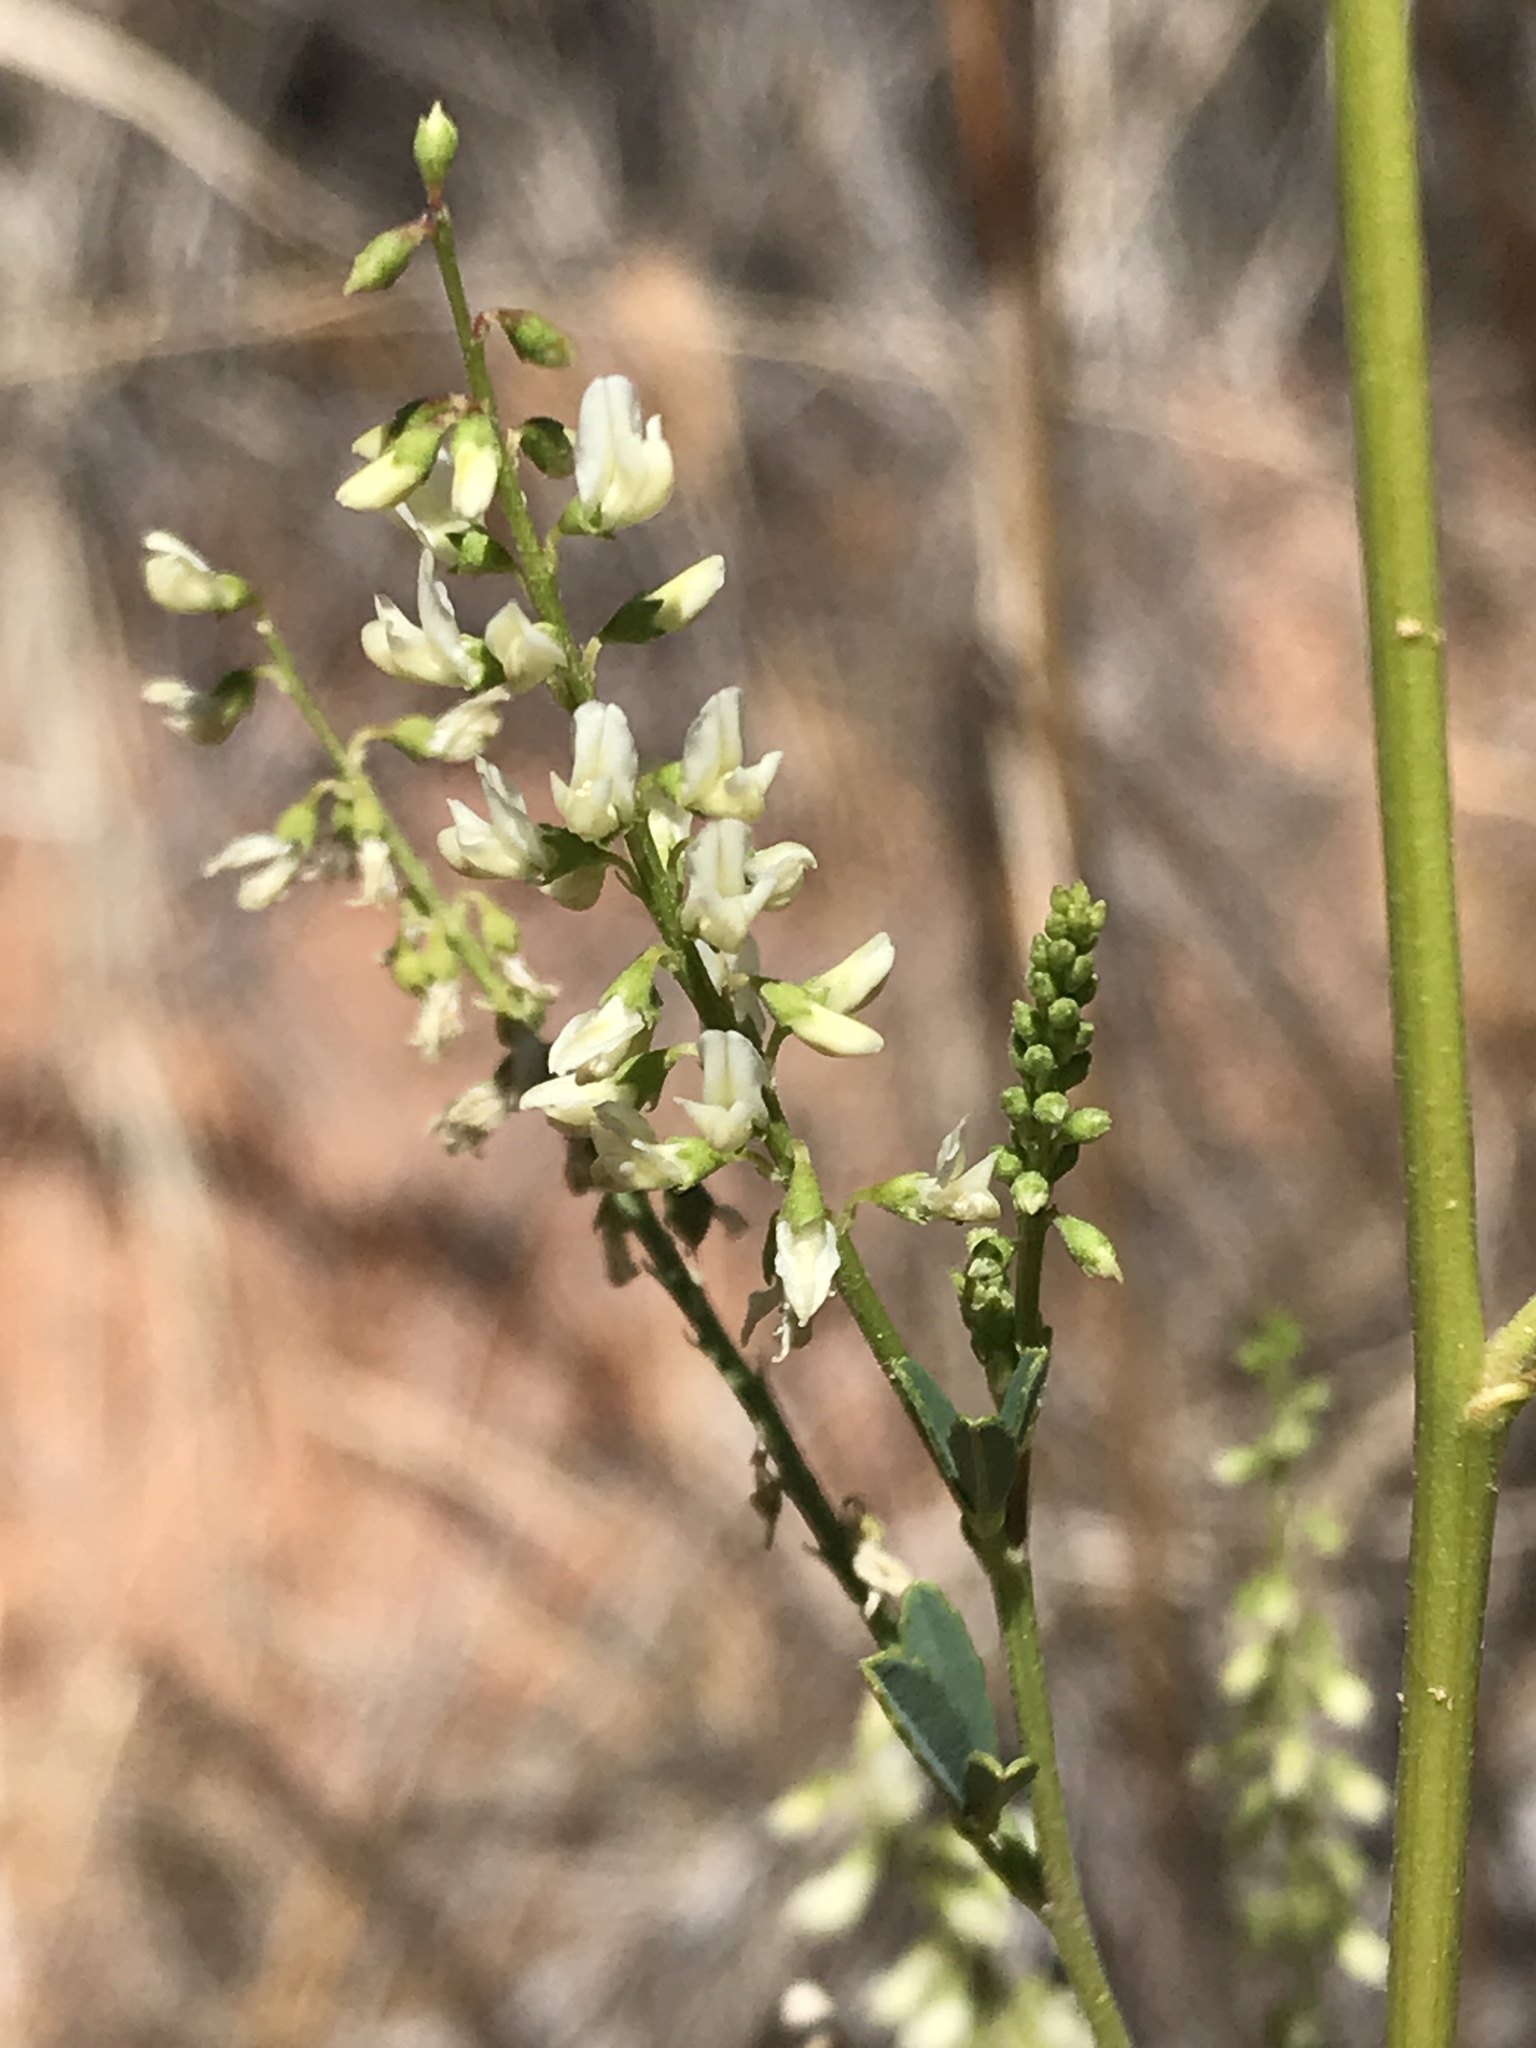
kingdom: Plantae
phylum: Tracheophyta
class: Magnoliopsida
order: Fabales
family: Fabaceae
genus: Melilotus
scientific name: Melilotus albus
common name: White melilot
